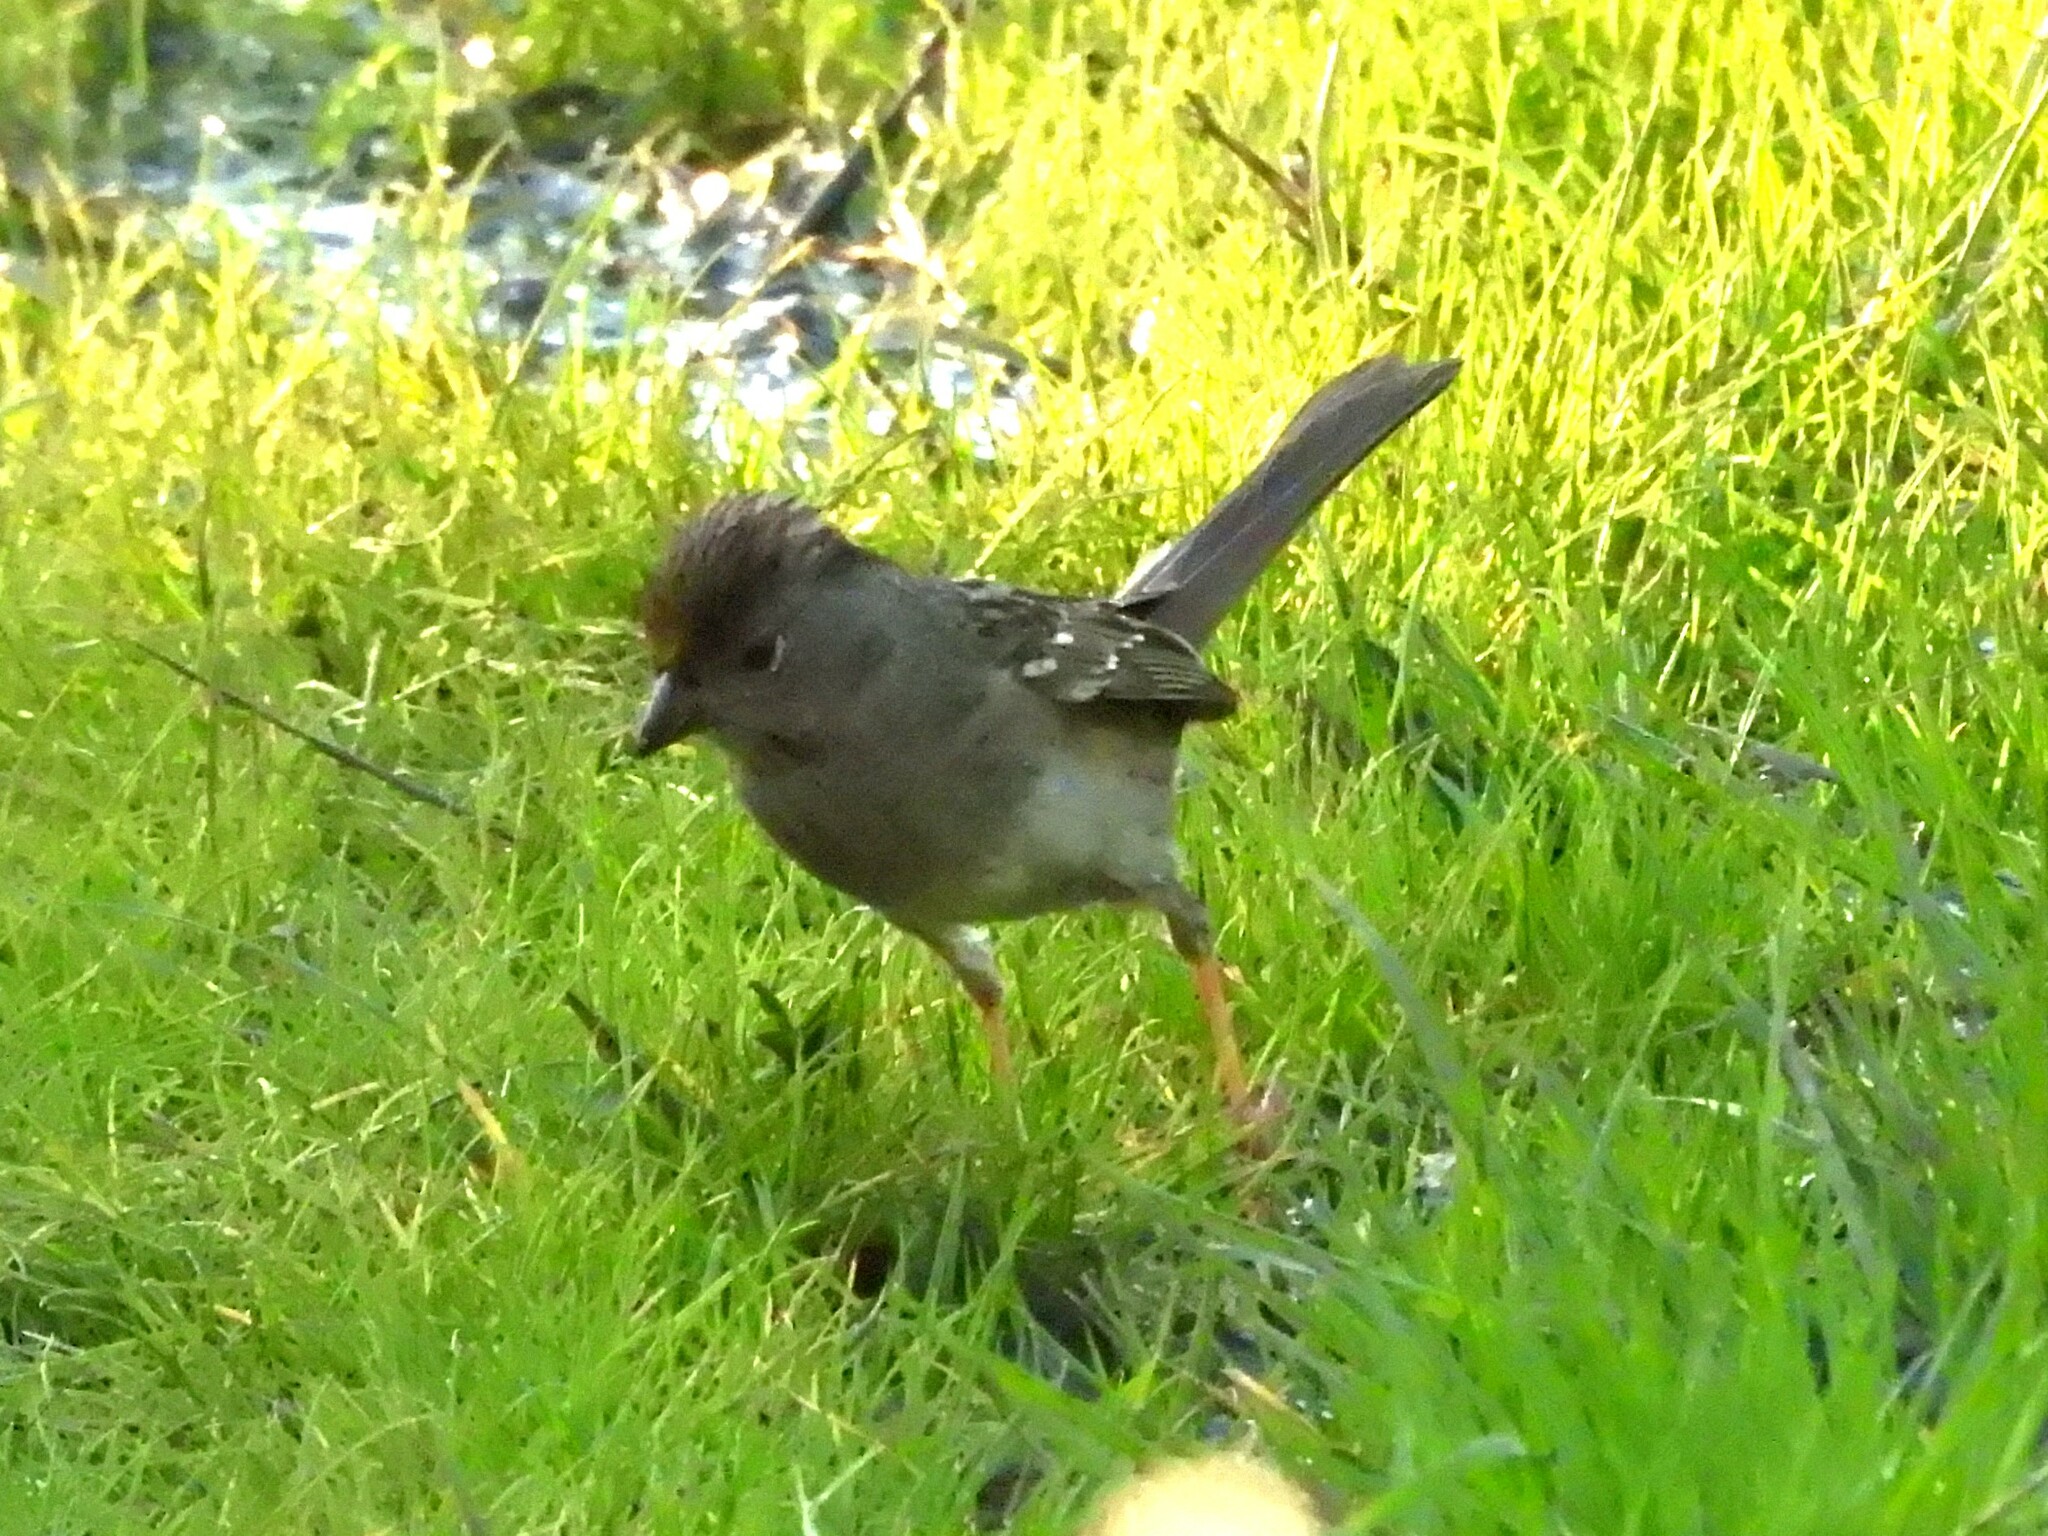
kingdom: Animalia
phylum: Chordata
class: Aves
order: Passeriformes
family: Passerellidae
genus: Zonotrichia
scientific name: Zonotrichia atricapilla
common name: Golden-crowned sparrow
